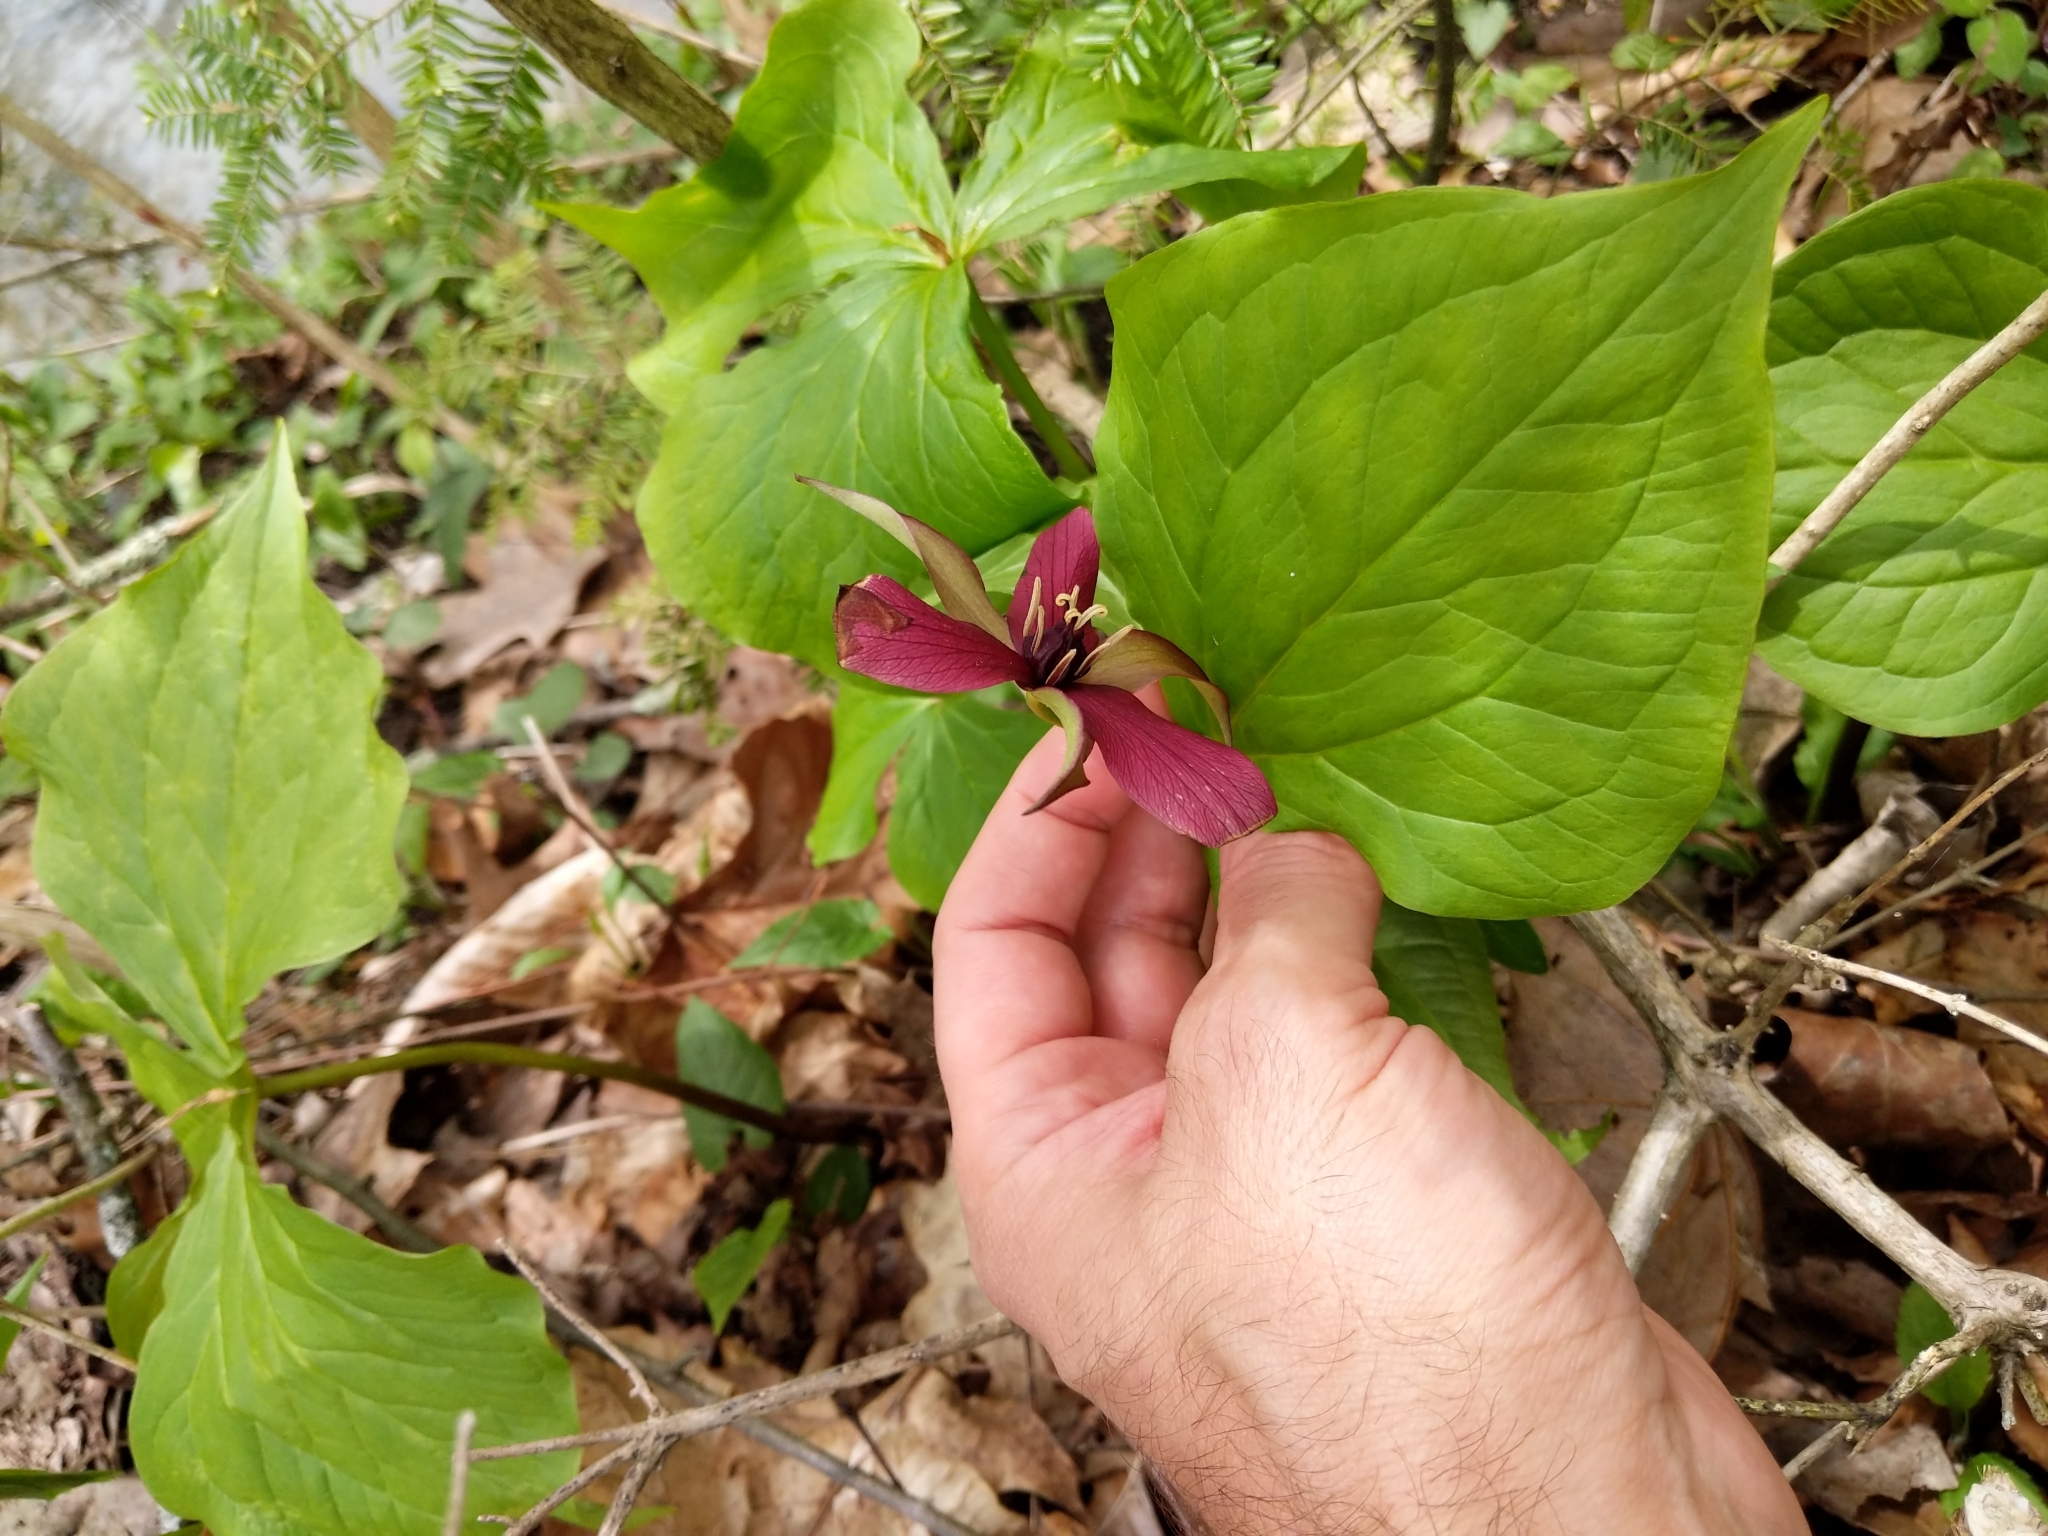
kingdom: Plantae
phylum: Tracheophyta
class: Liliopsida
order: Liliales
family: Melanthiaceae
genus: Trillium
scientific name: Trillium erectum
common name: Purple trillium
